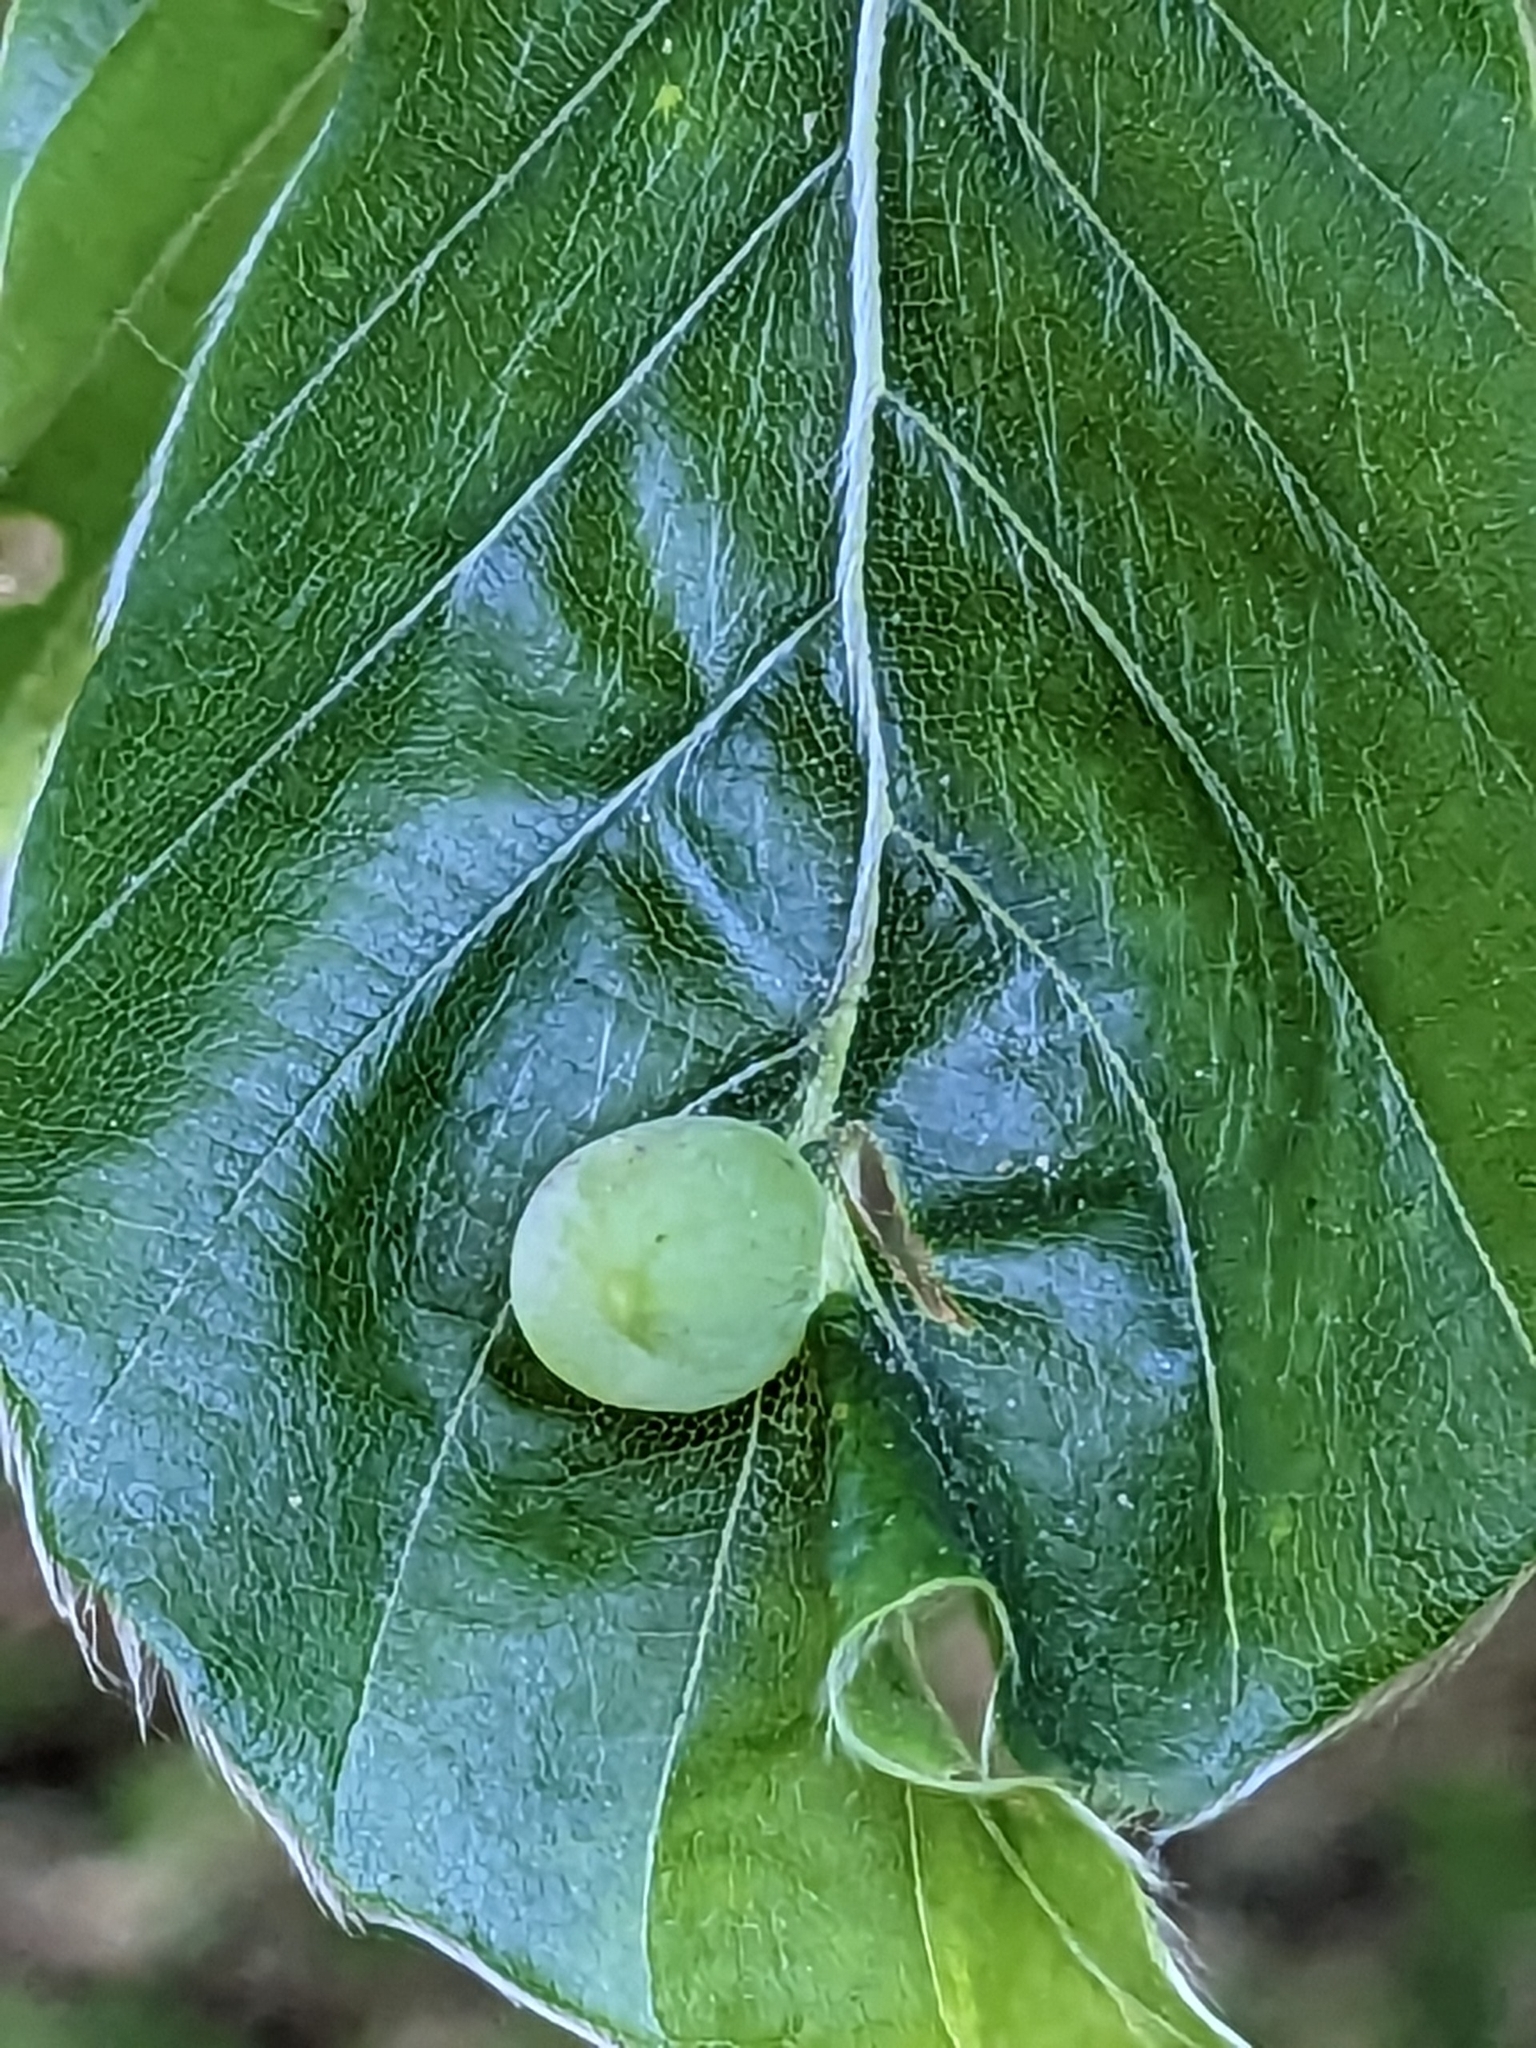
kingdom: Animalia
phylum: Arthropoda
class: Insecta
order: Diptera
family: Cecidomyiidae
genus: Mikiola
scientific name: Mikiola fagi
